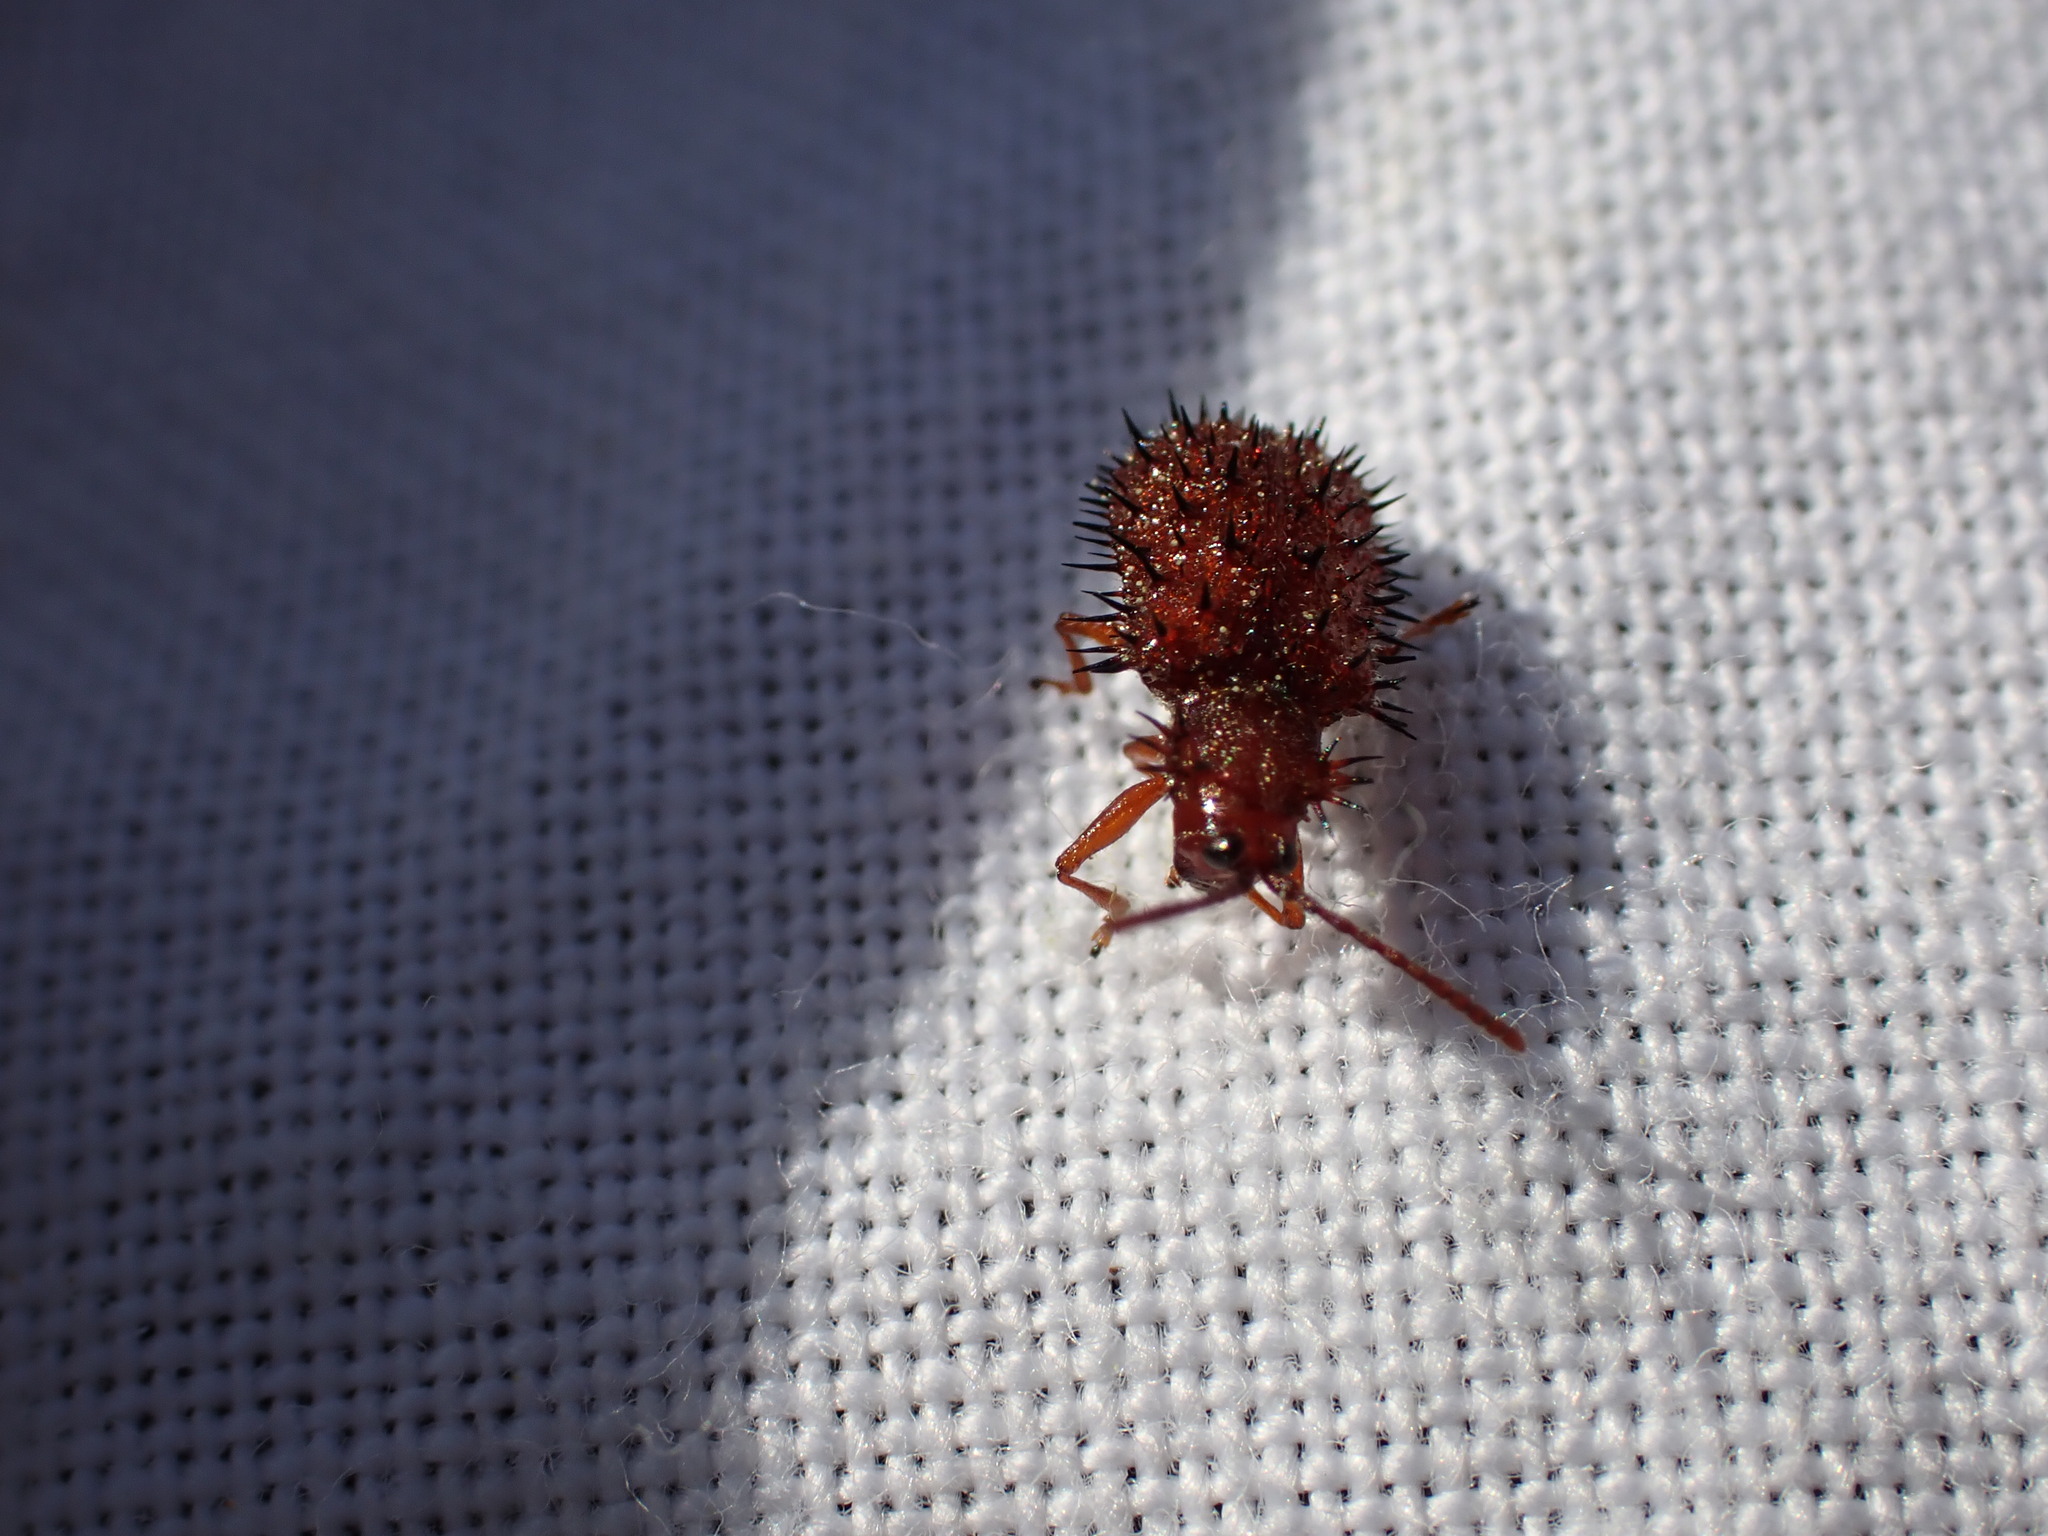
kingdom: Animalia
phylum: Arthropoda
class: Insecta
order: Coleoptera
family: Chrysomelidae
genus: Dicladispa
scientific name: Dicladispa testacea
